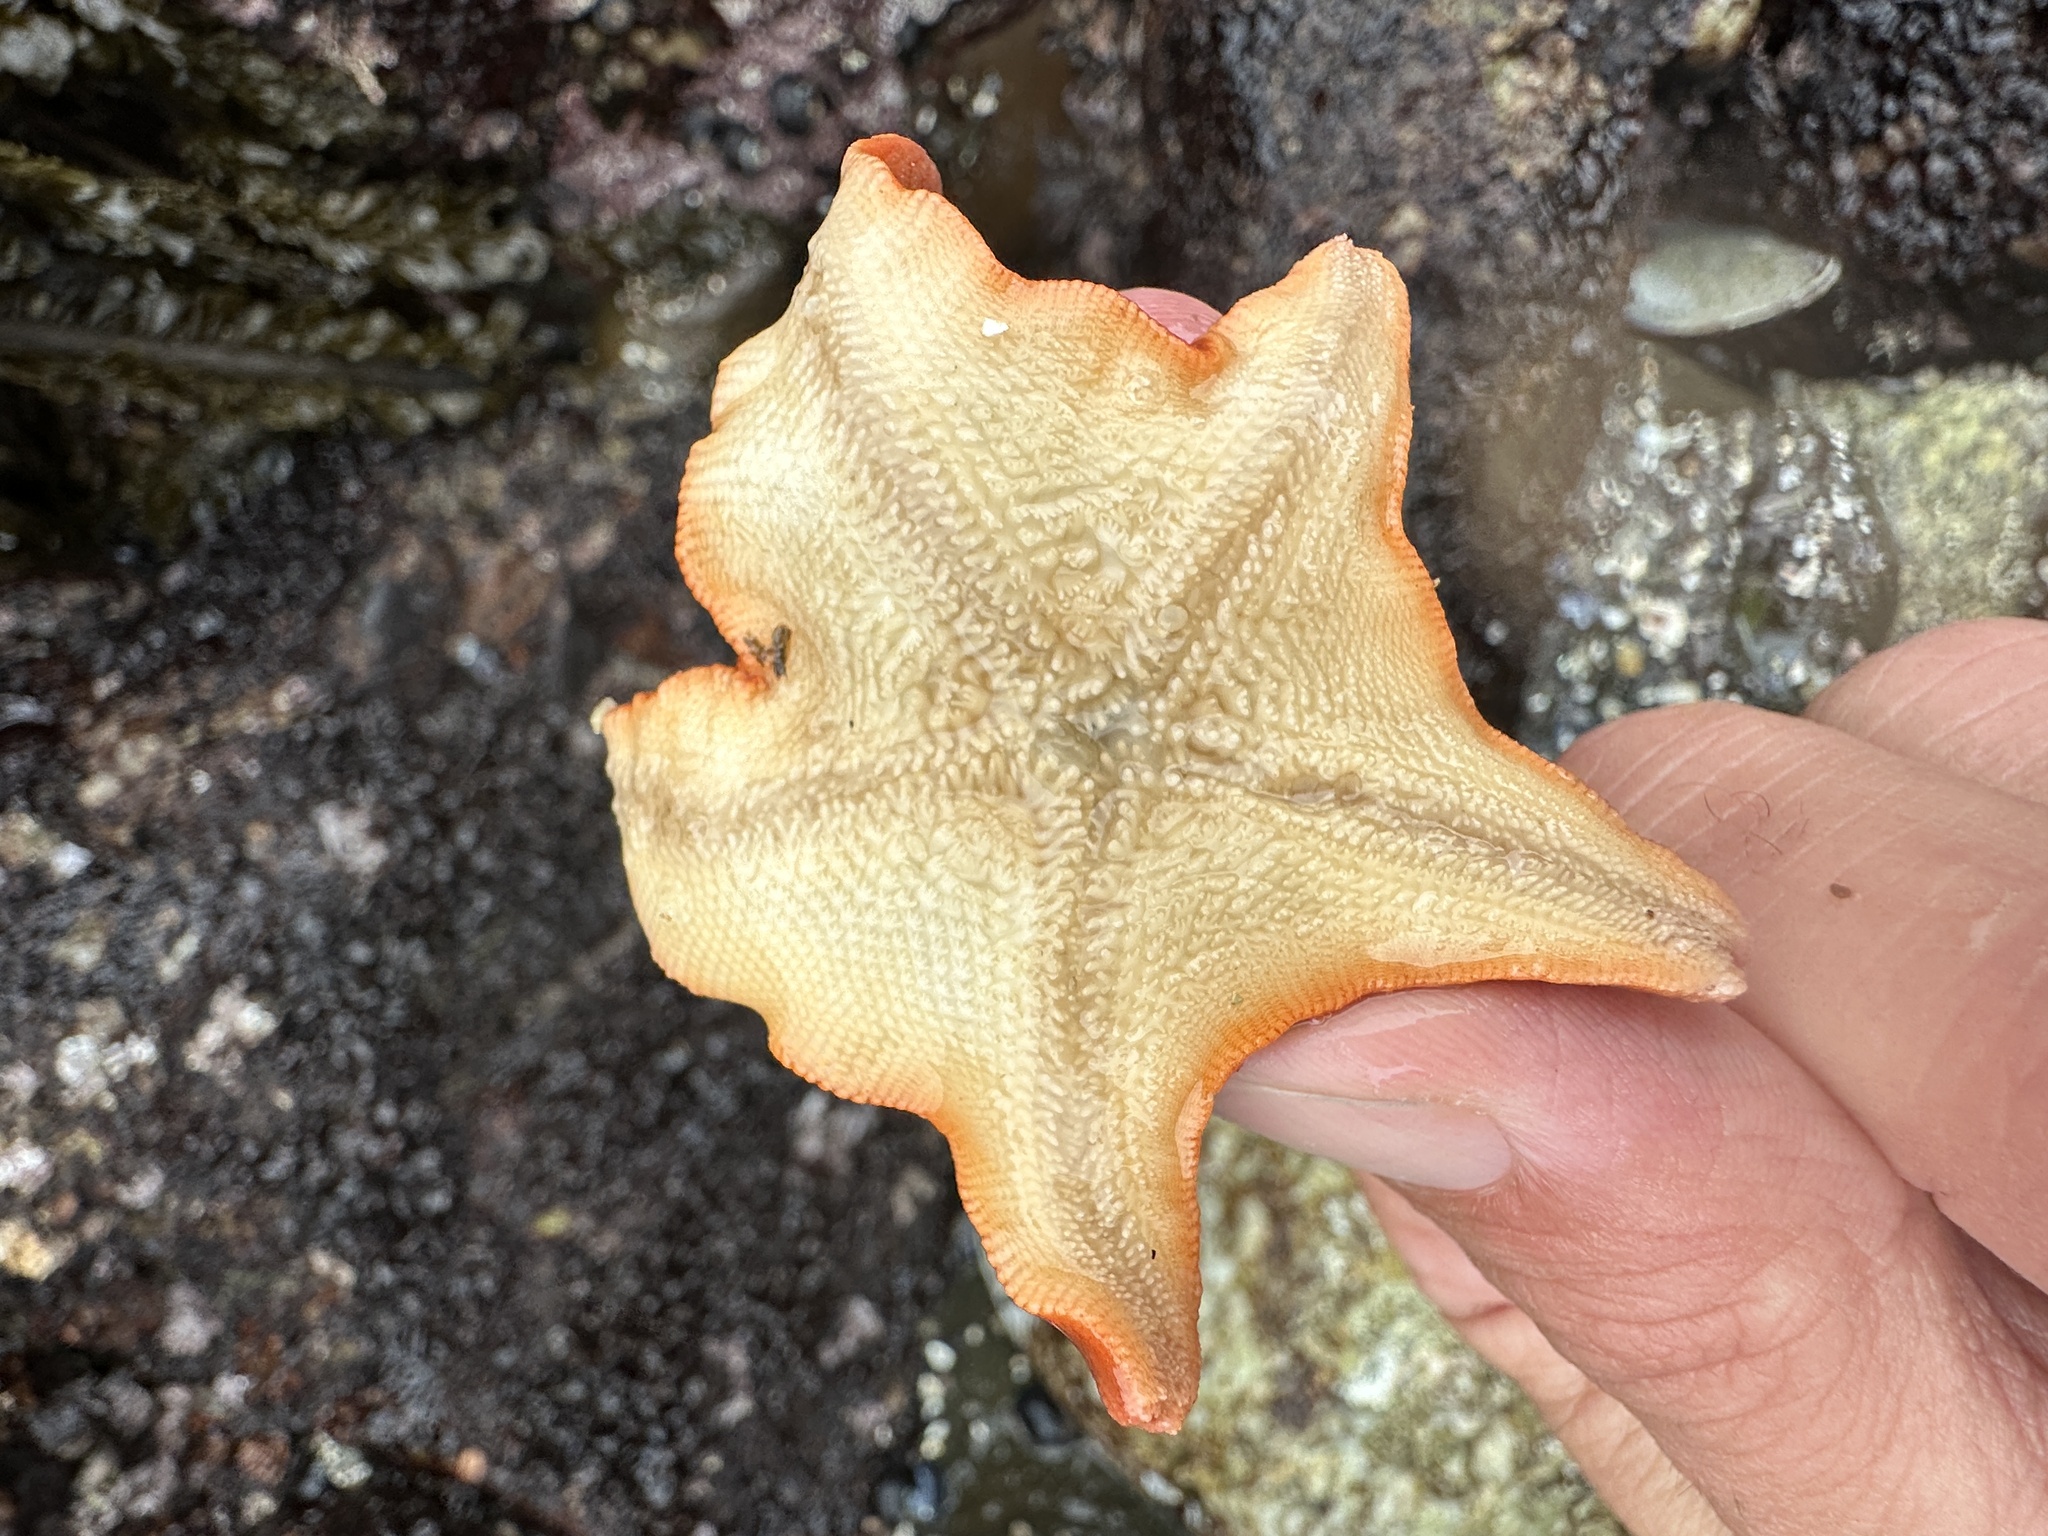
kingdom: Animalia
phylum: Echinodermata
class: Asteroidea
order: Valvatida
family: Asterinidae
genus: Patiria
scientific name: Patiria miniata
